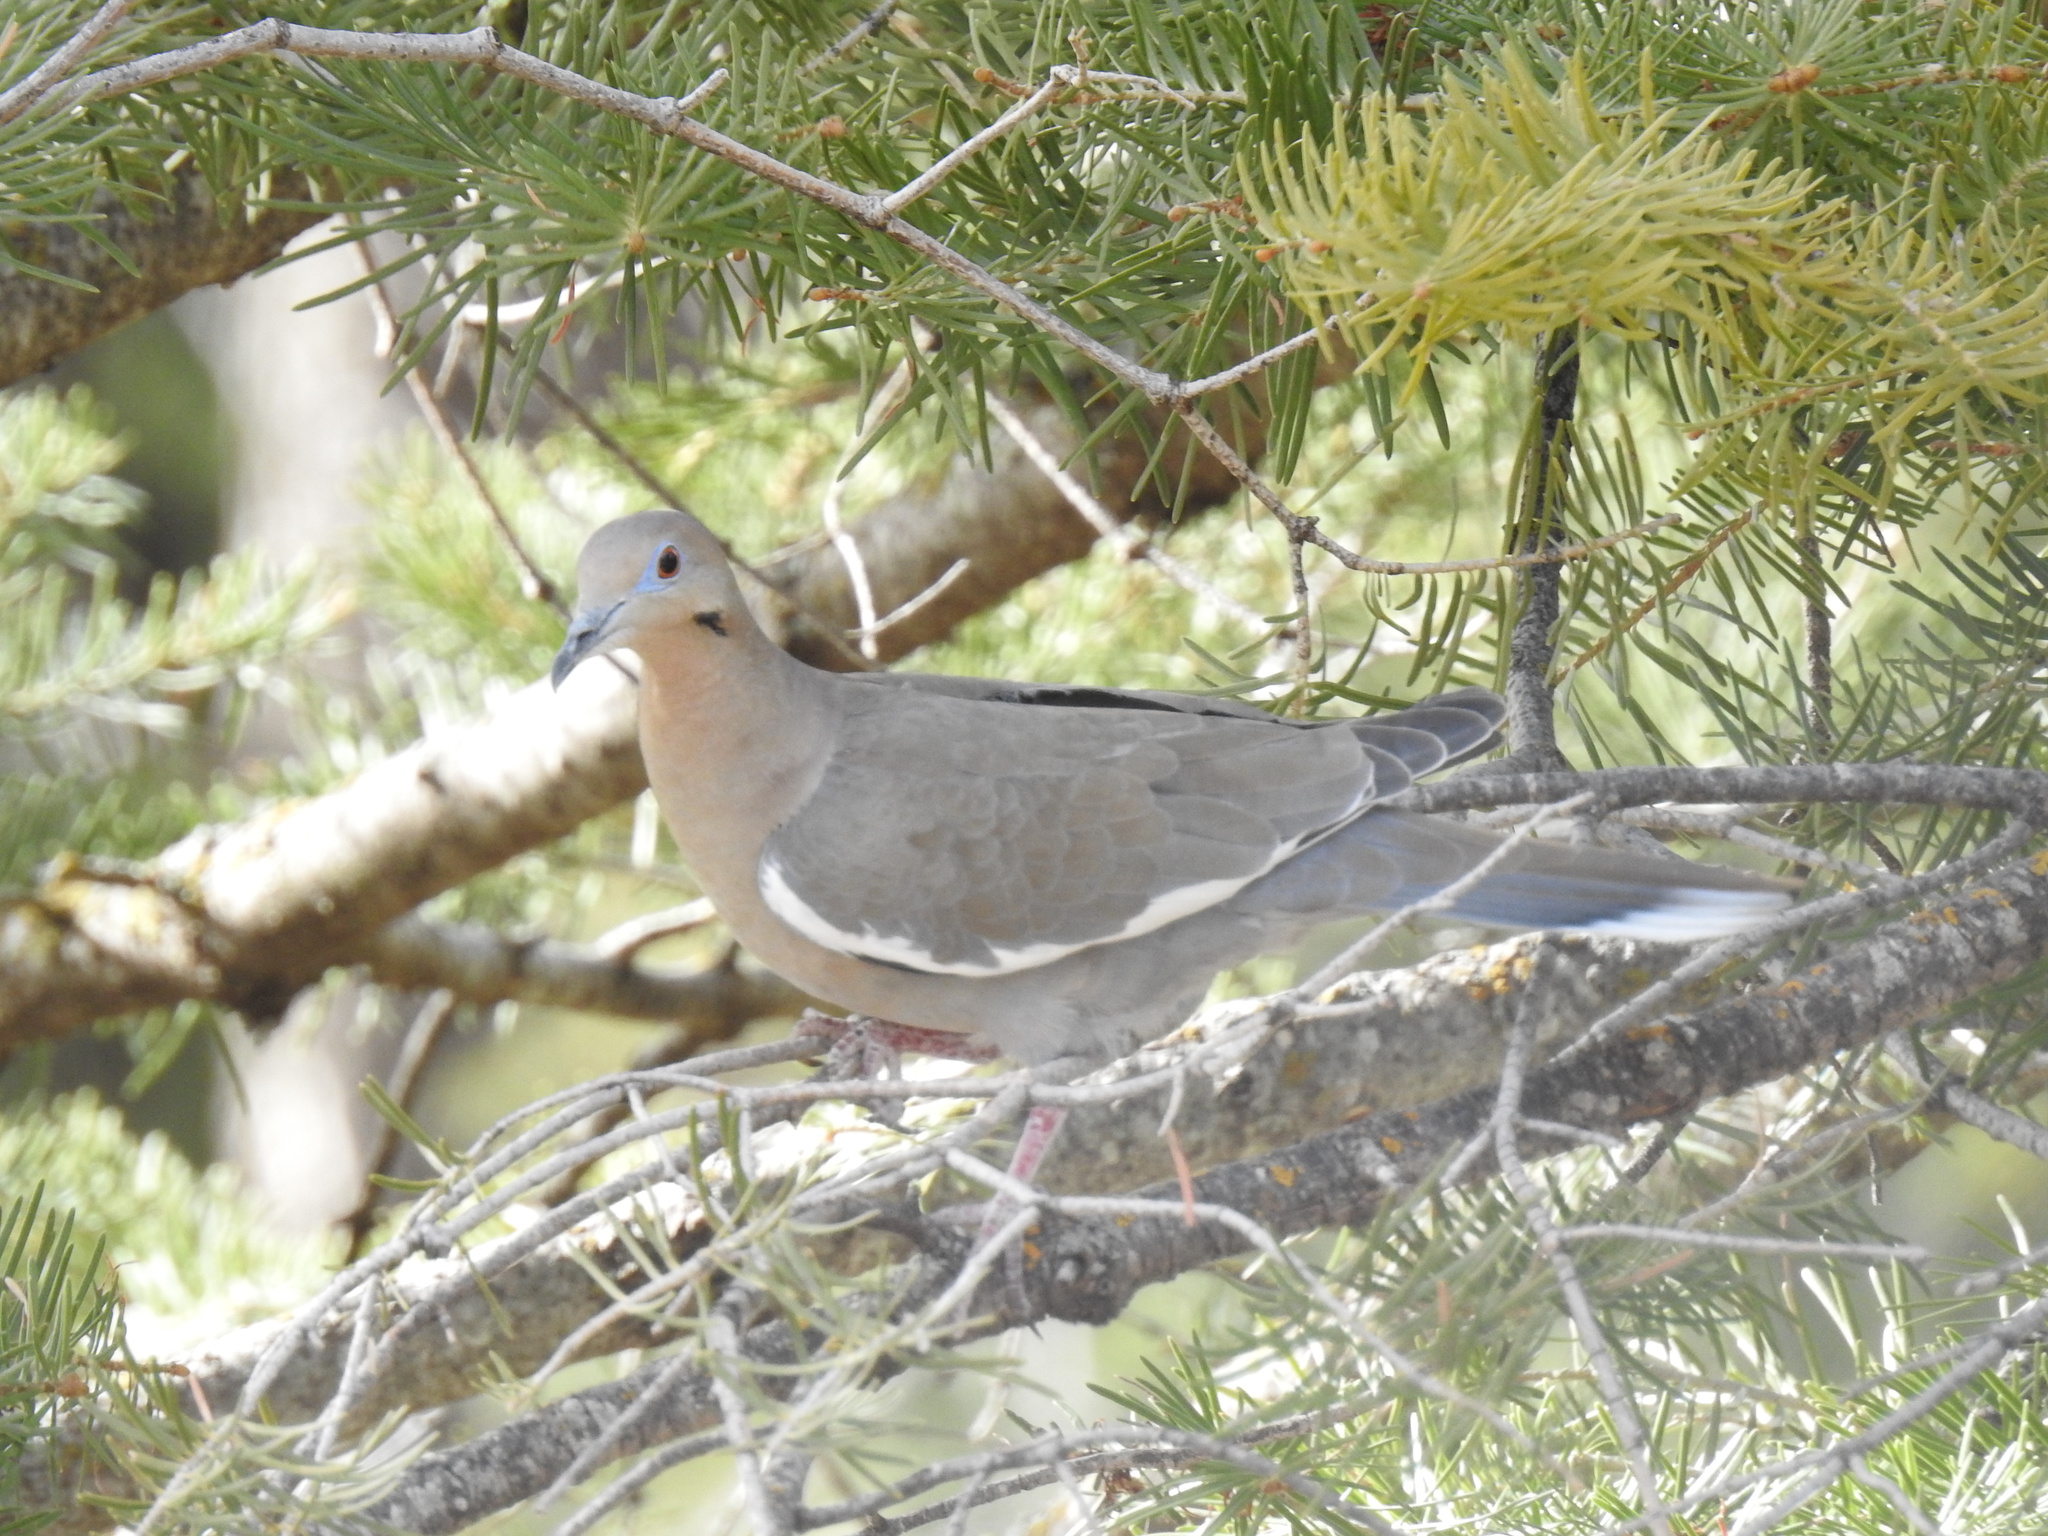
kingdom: Animalia
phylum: Chordata
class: Aves
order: Columbiformes
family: Columbidae
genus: Zenaida
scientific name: Zenaida asiatica
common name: White-winged dove
